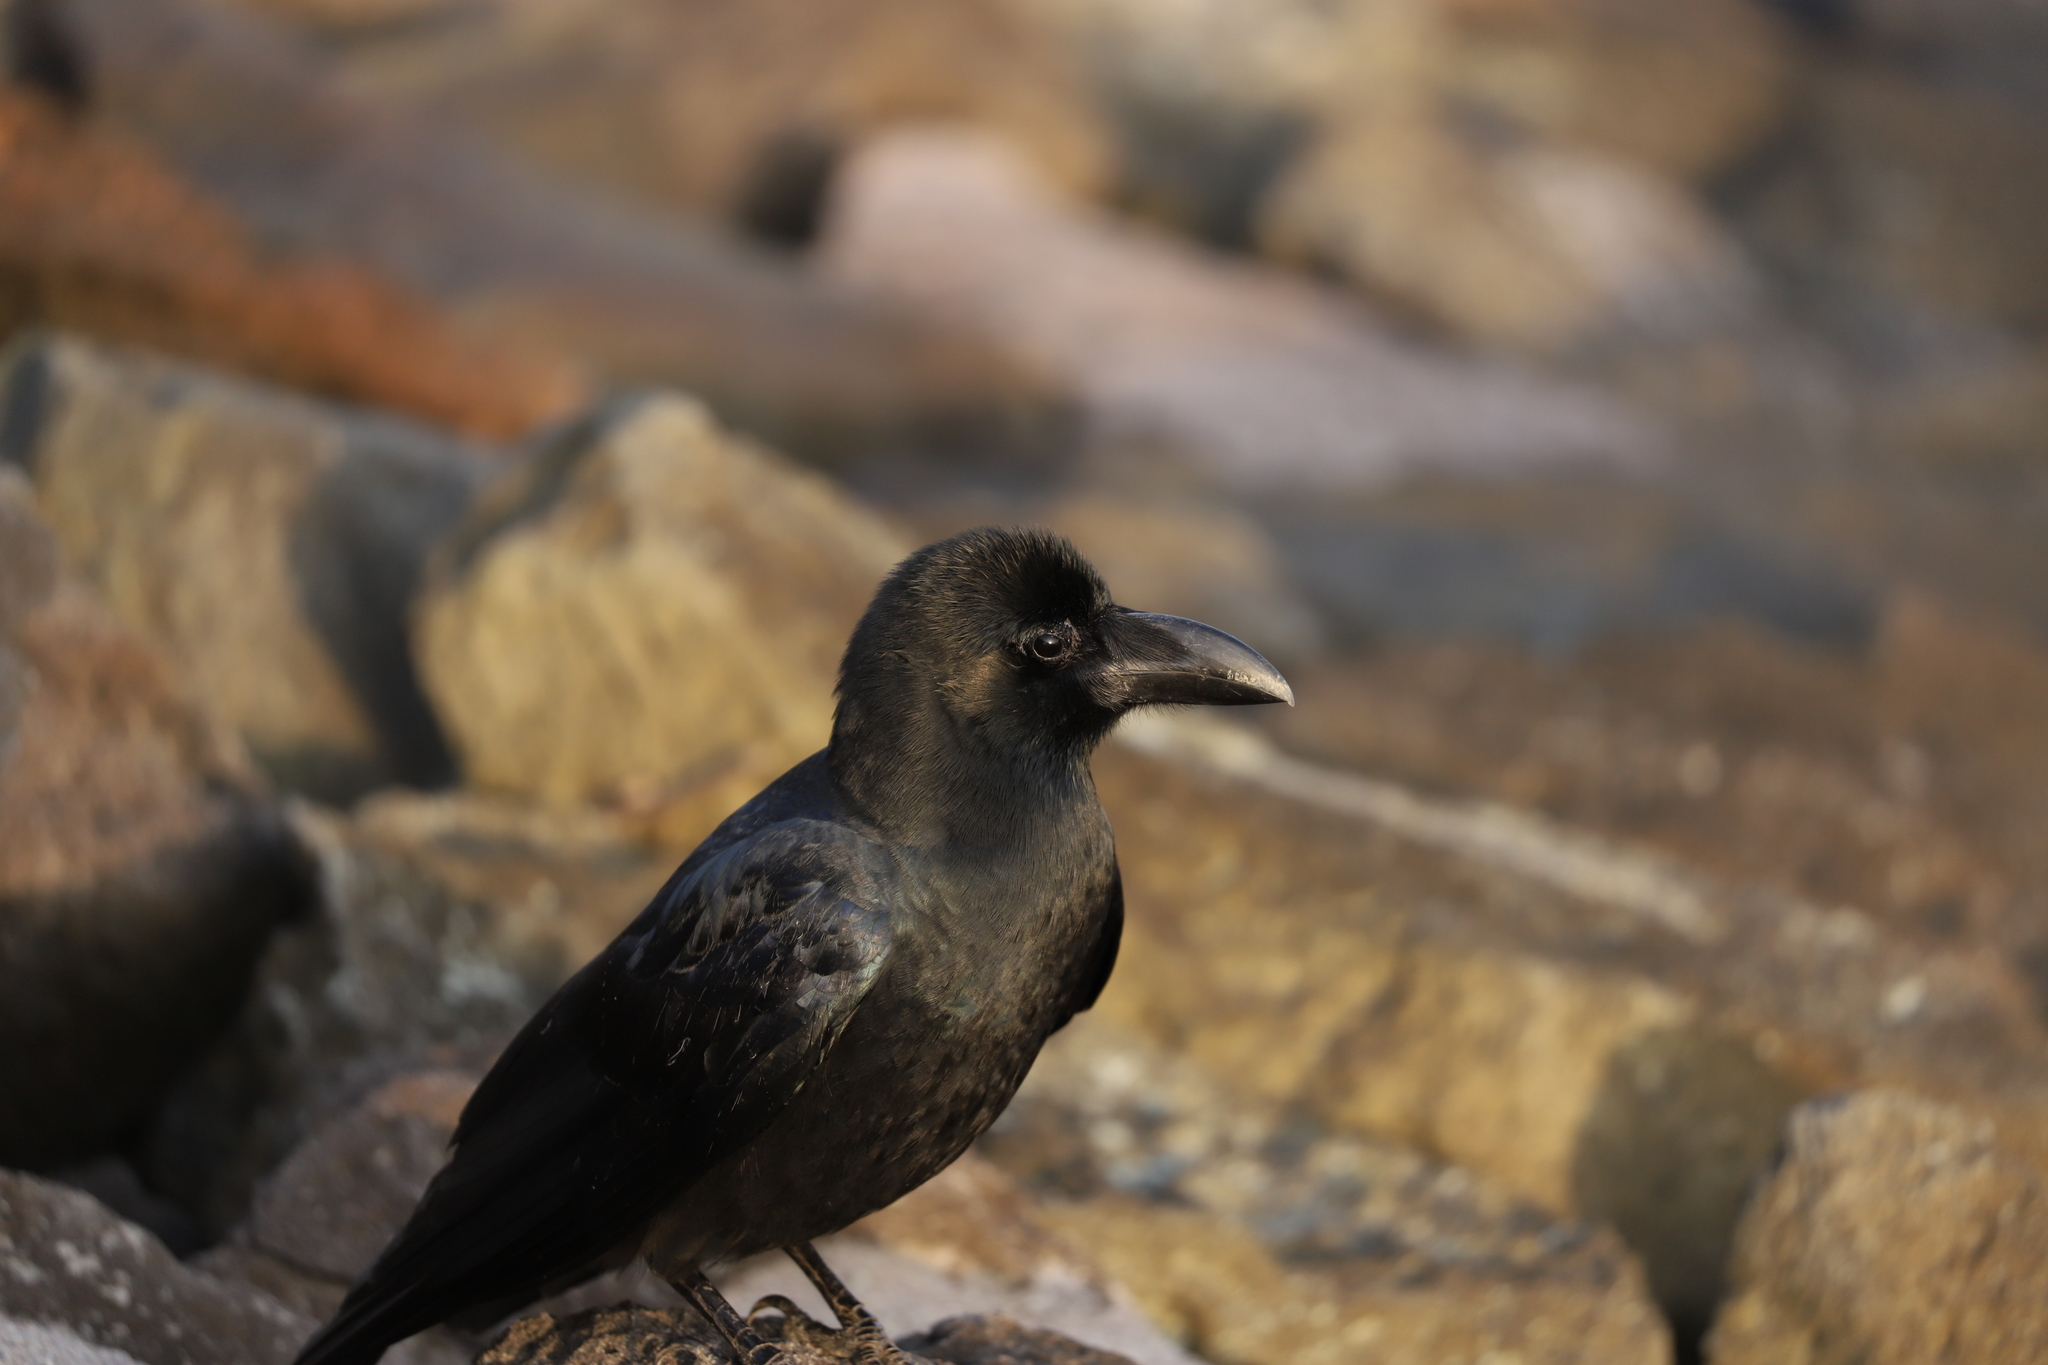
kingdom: Animalia
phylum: Chordata
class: Aves
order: Passeriformes
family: Corvidae
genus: Corvus
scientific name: Corvus macrorhynchos
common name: Large-billed crow
